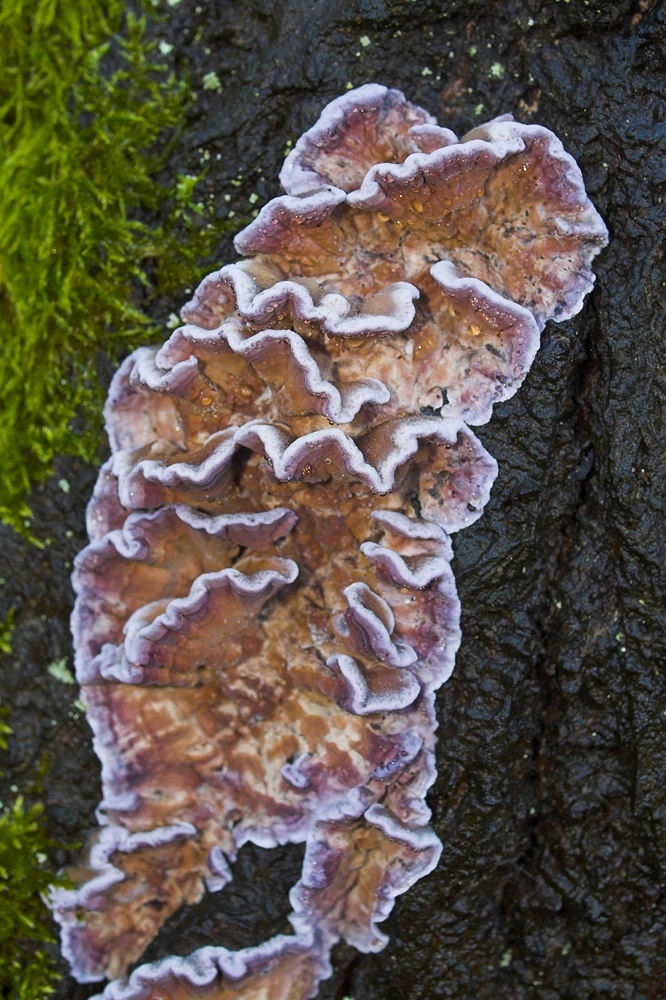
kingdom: Fungi
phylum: Basidiomycota
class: Agaricomycetes
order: Agaricales
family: Cyphellaceae
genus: Chondrostereum
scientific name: Chondrostereum purpureum
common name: Silver leaf disease
